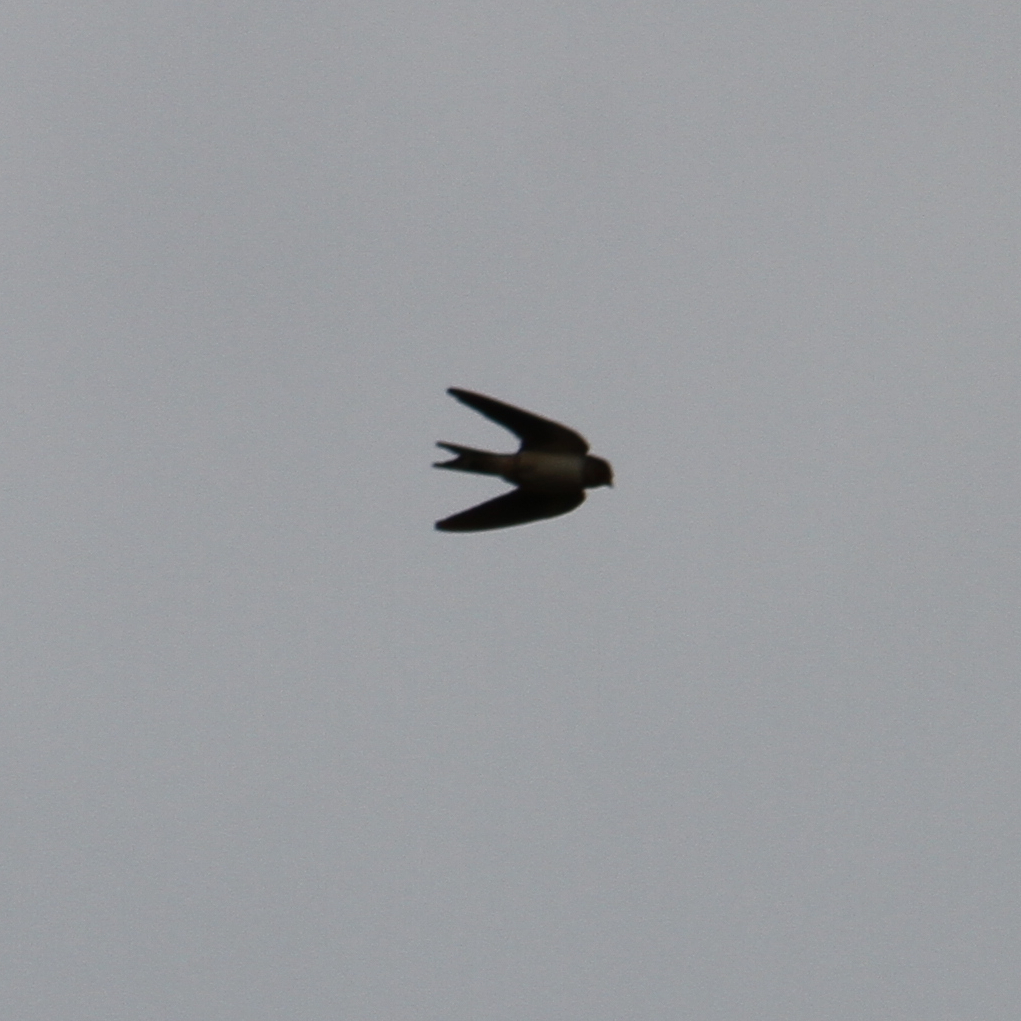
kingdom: Animalia
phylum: Chordata
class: Aves
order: Passeriformes
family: Hirundinidae
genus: Hirundo
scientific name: Hirundo rustica
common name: Barn swallow
